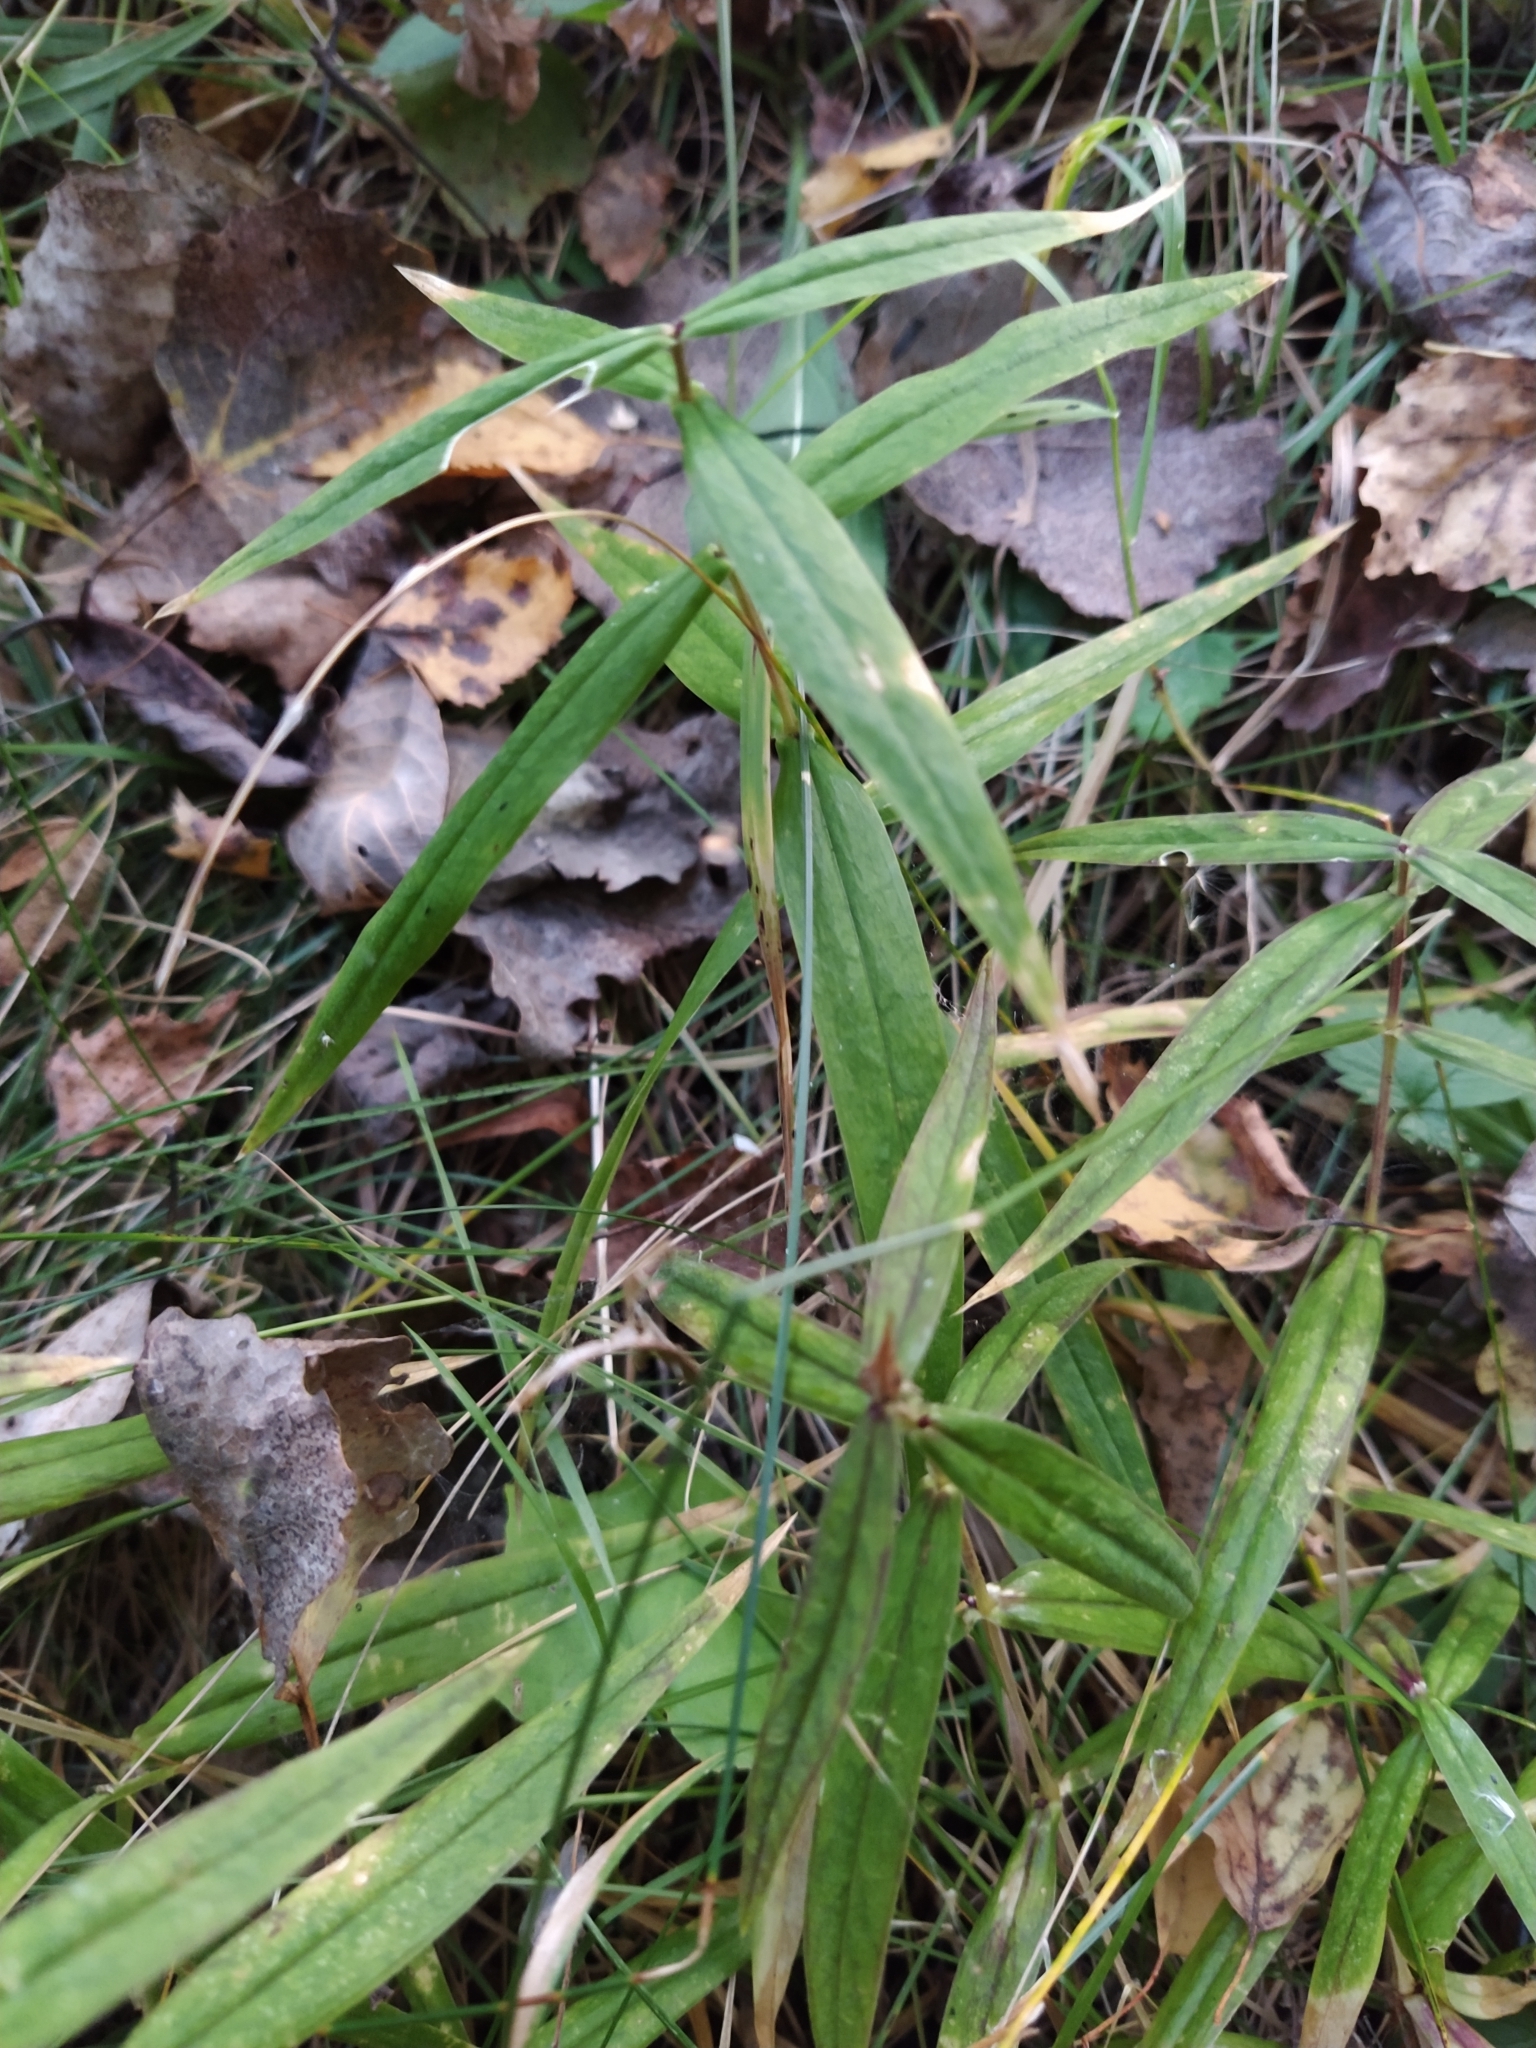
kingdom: Plantae
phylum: Tracheophyta
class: Magnoliopsida
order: Caryophyllales
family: Caryophyllaceae
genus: Rabelera
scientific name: Rabelera holostea
